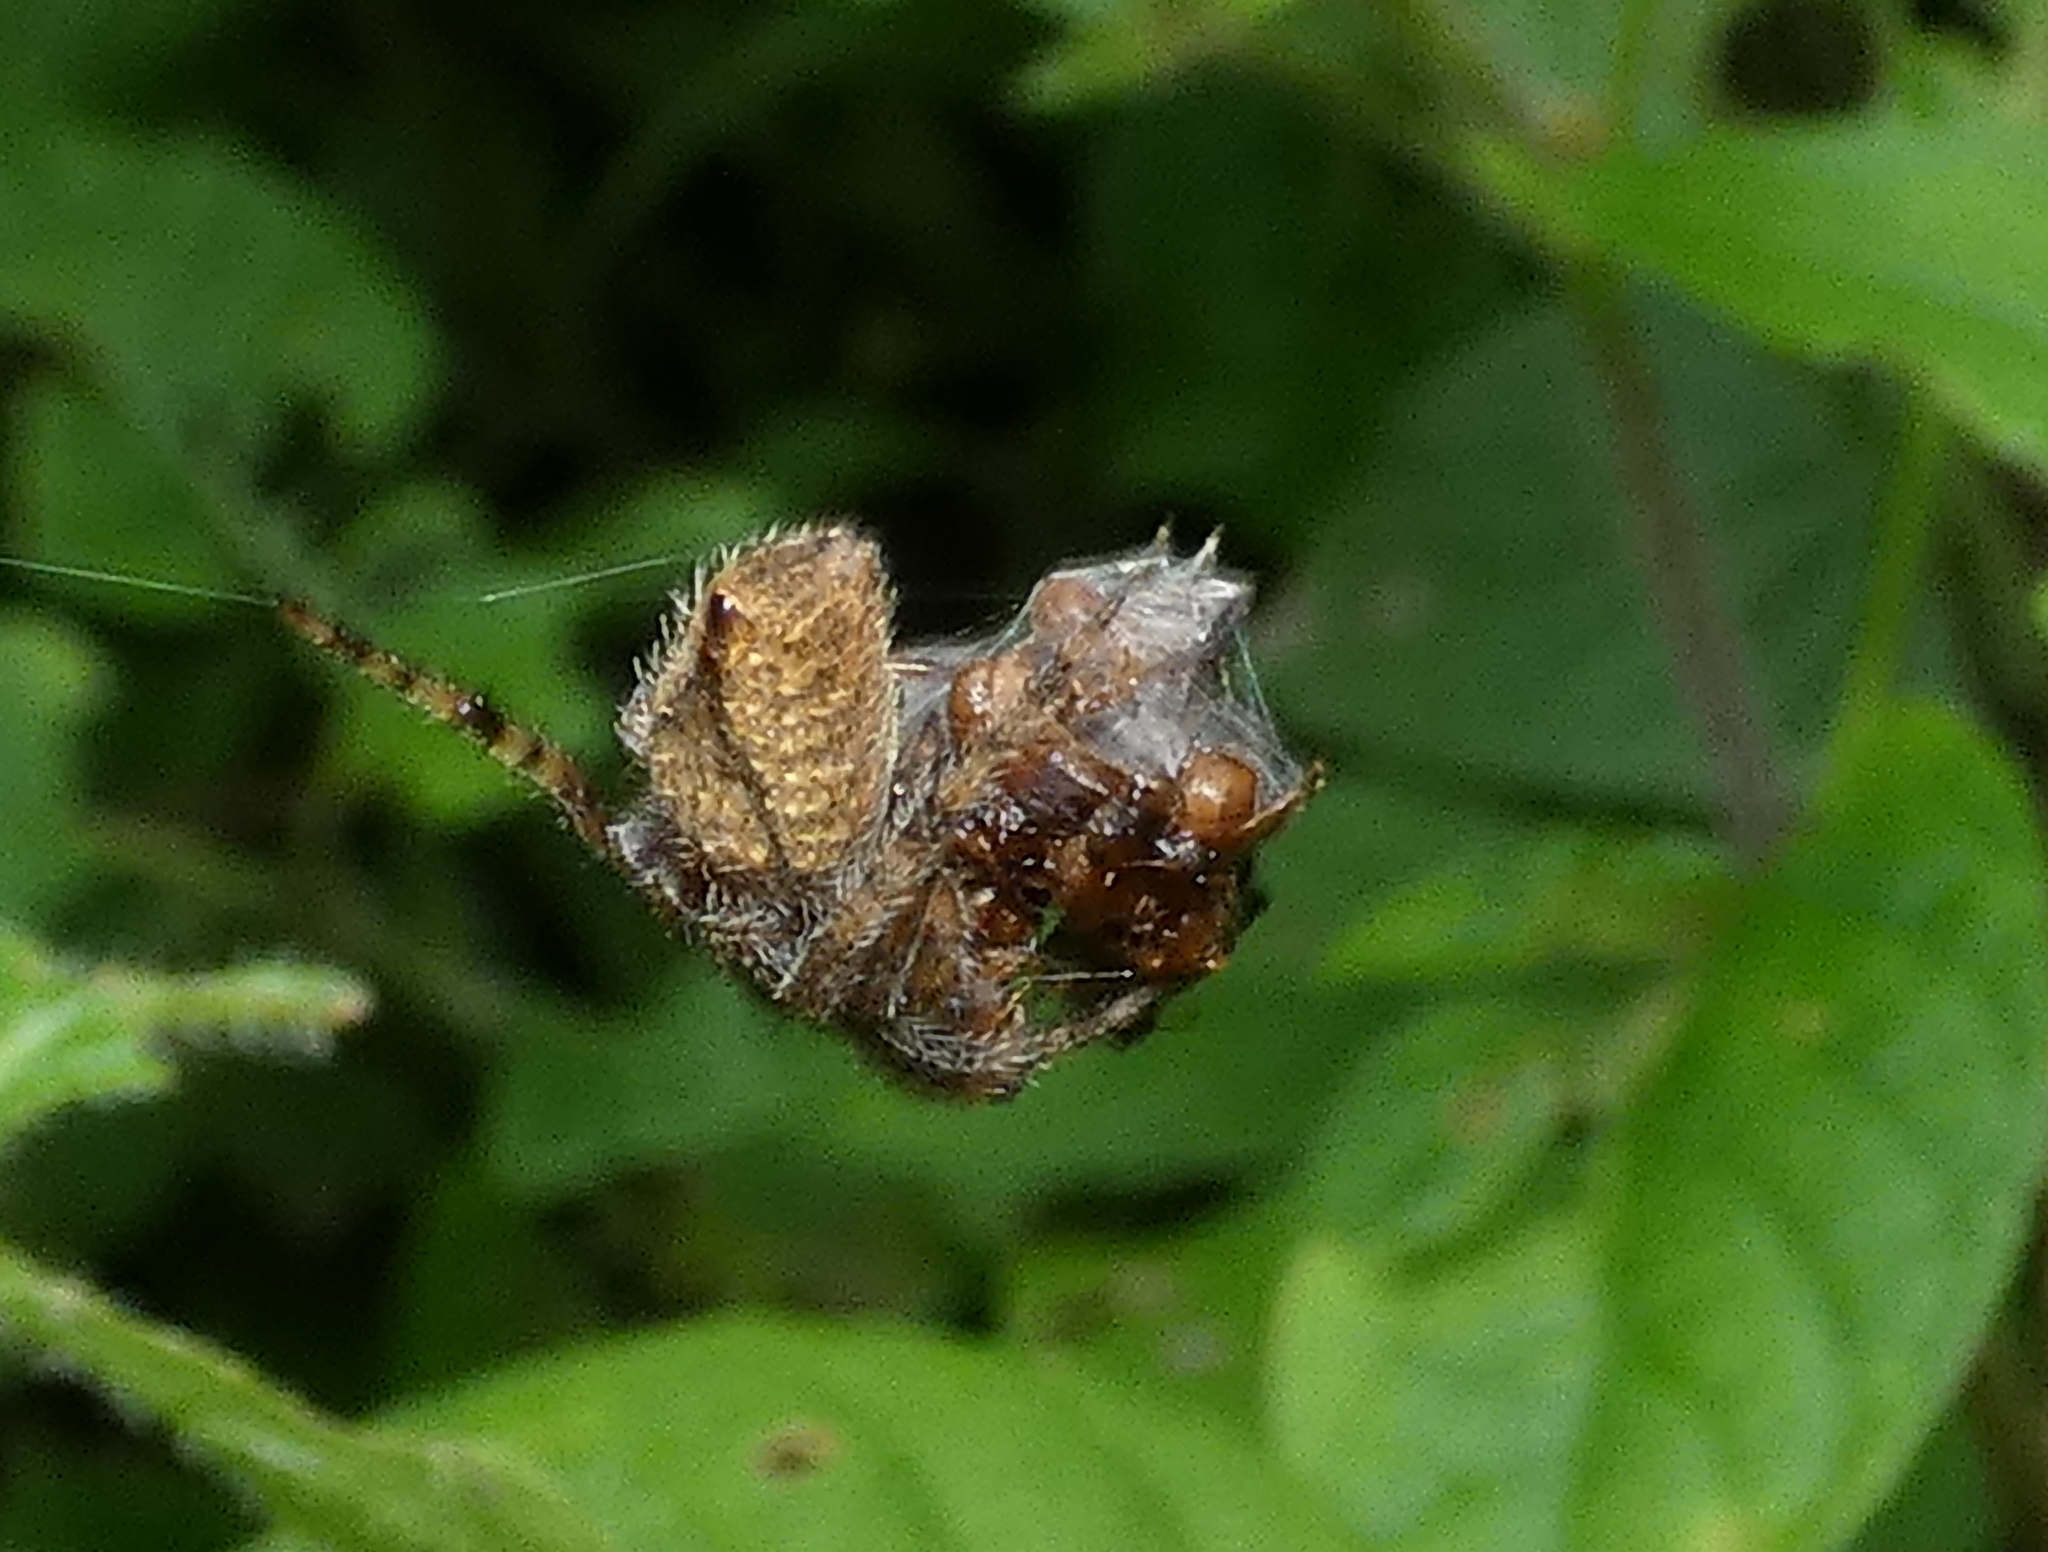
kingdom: Animalia
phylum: Arthropoda
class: Arachnida
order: Araneae
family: Araneidae
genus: Eriophora
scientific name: Eriophora edax
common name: Orb weavers
